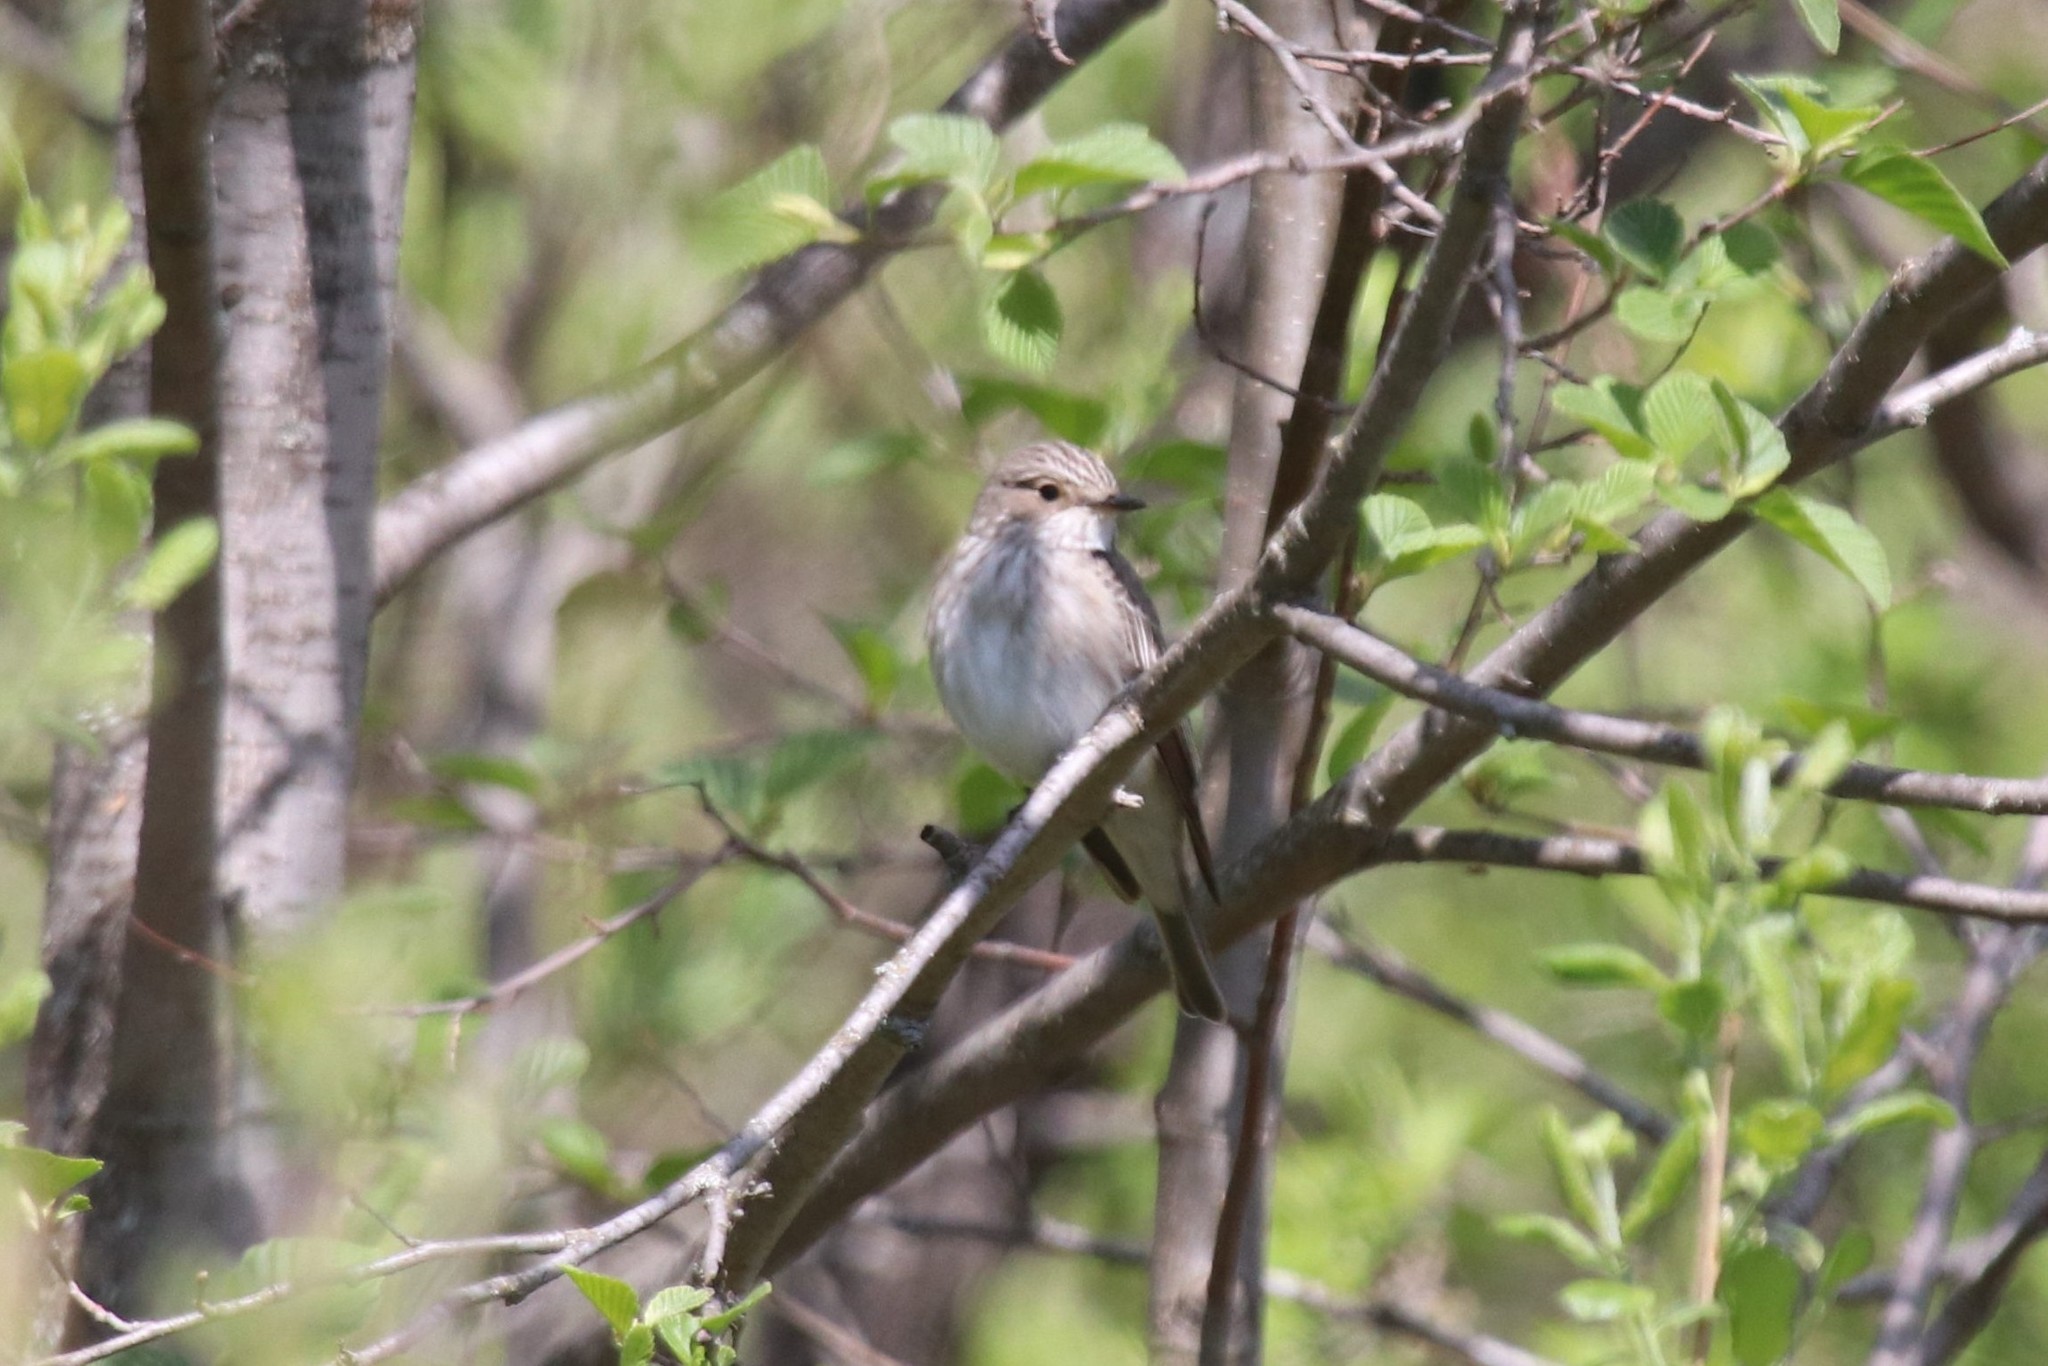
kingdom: Animalia
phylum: Chordata
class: Aves
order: Passeriformes
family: Muscicapidae
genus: Muscicapa
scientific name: Muscicapa striata
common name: Spotted flycatcher
